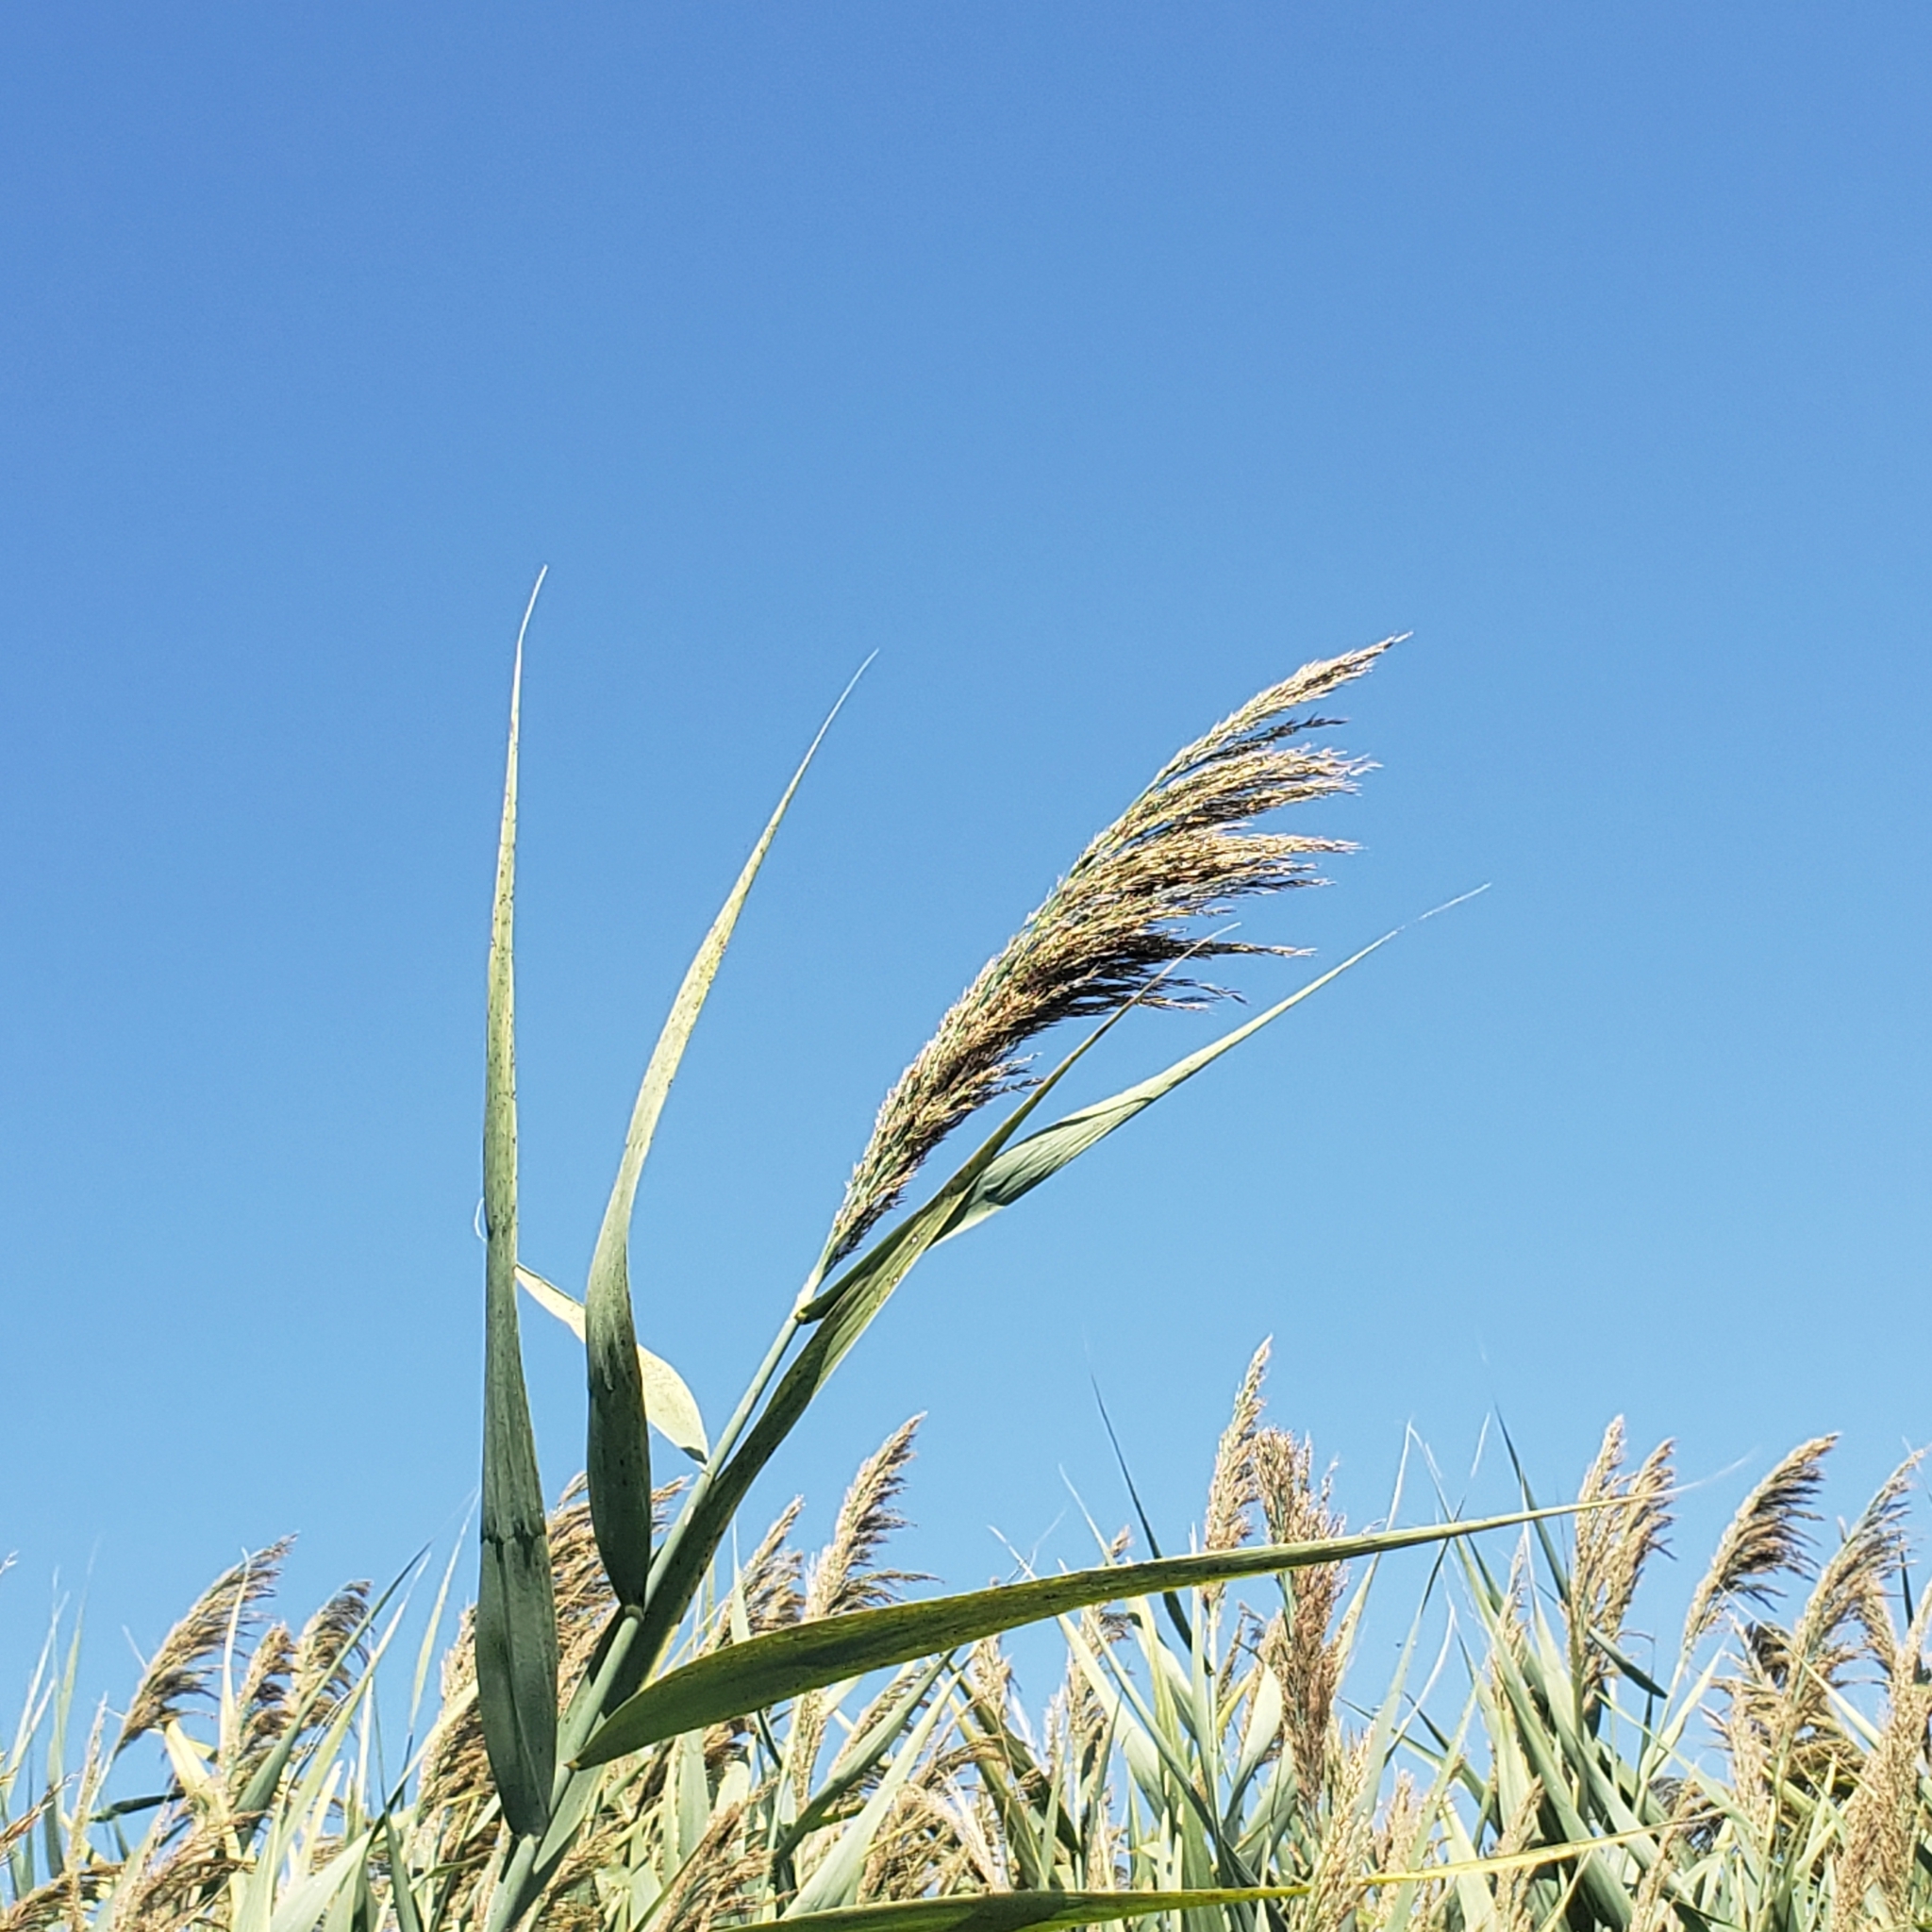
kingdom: Plantae
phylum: Tracheophyta
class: Liliopsida
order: Poales
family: Poaceae
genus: Phragmites
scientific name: Phragmites australis
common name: Common reed
